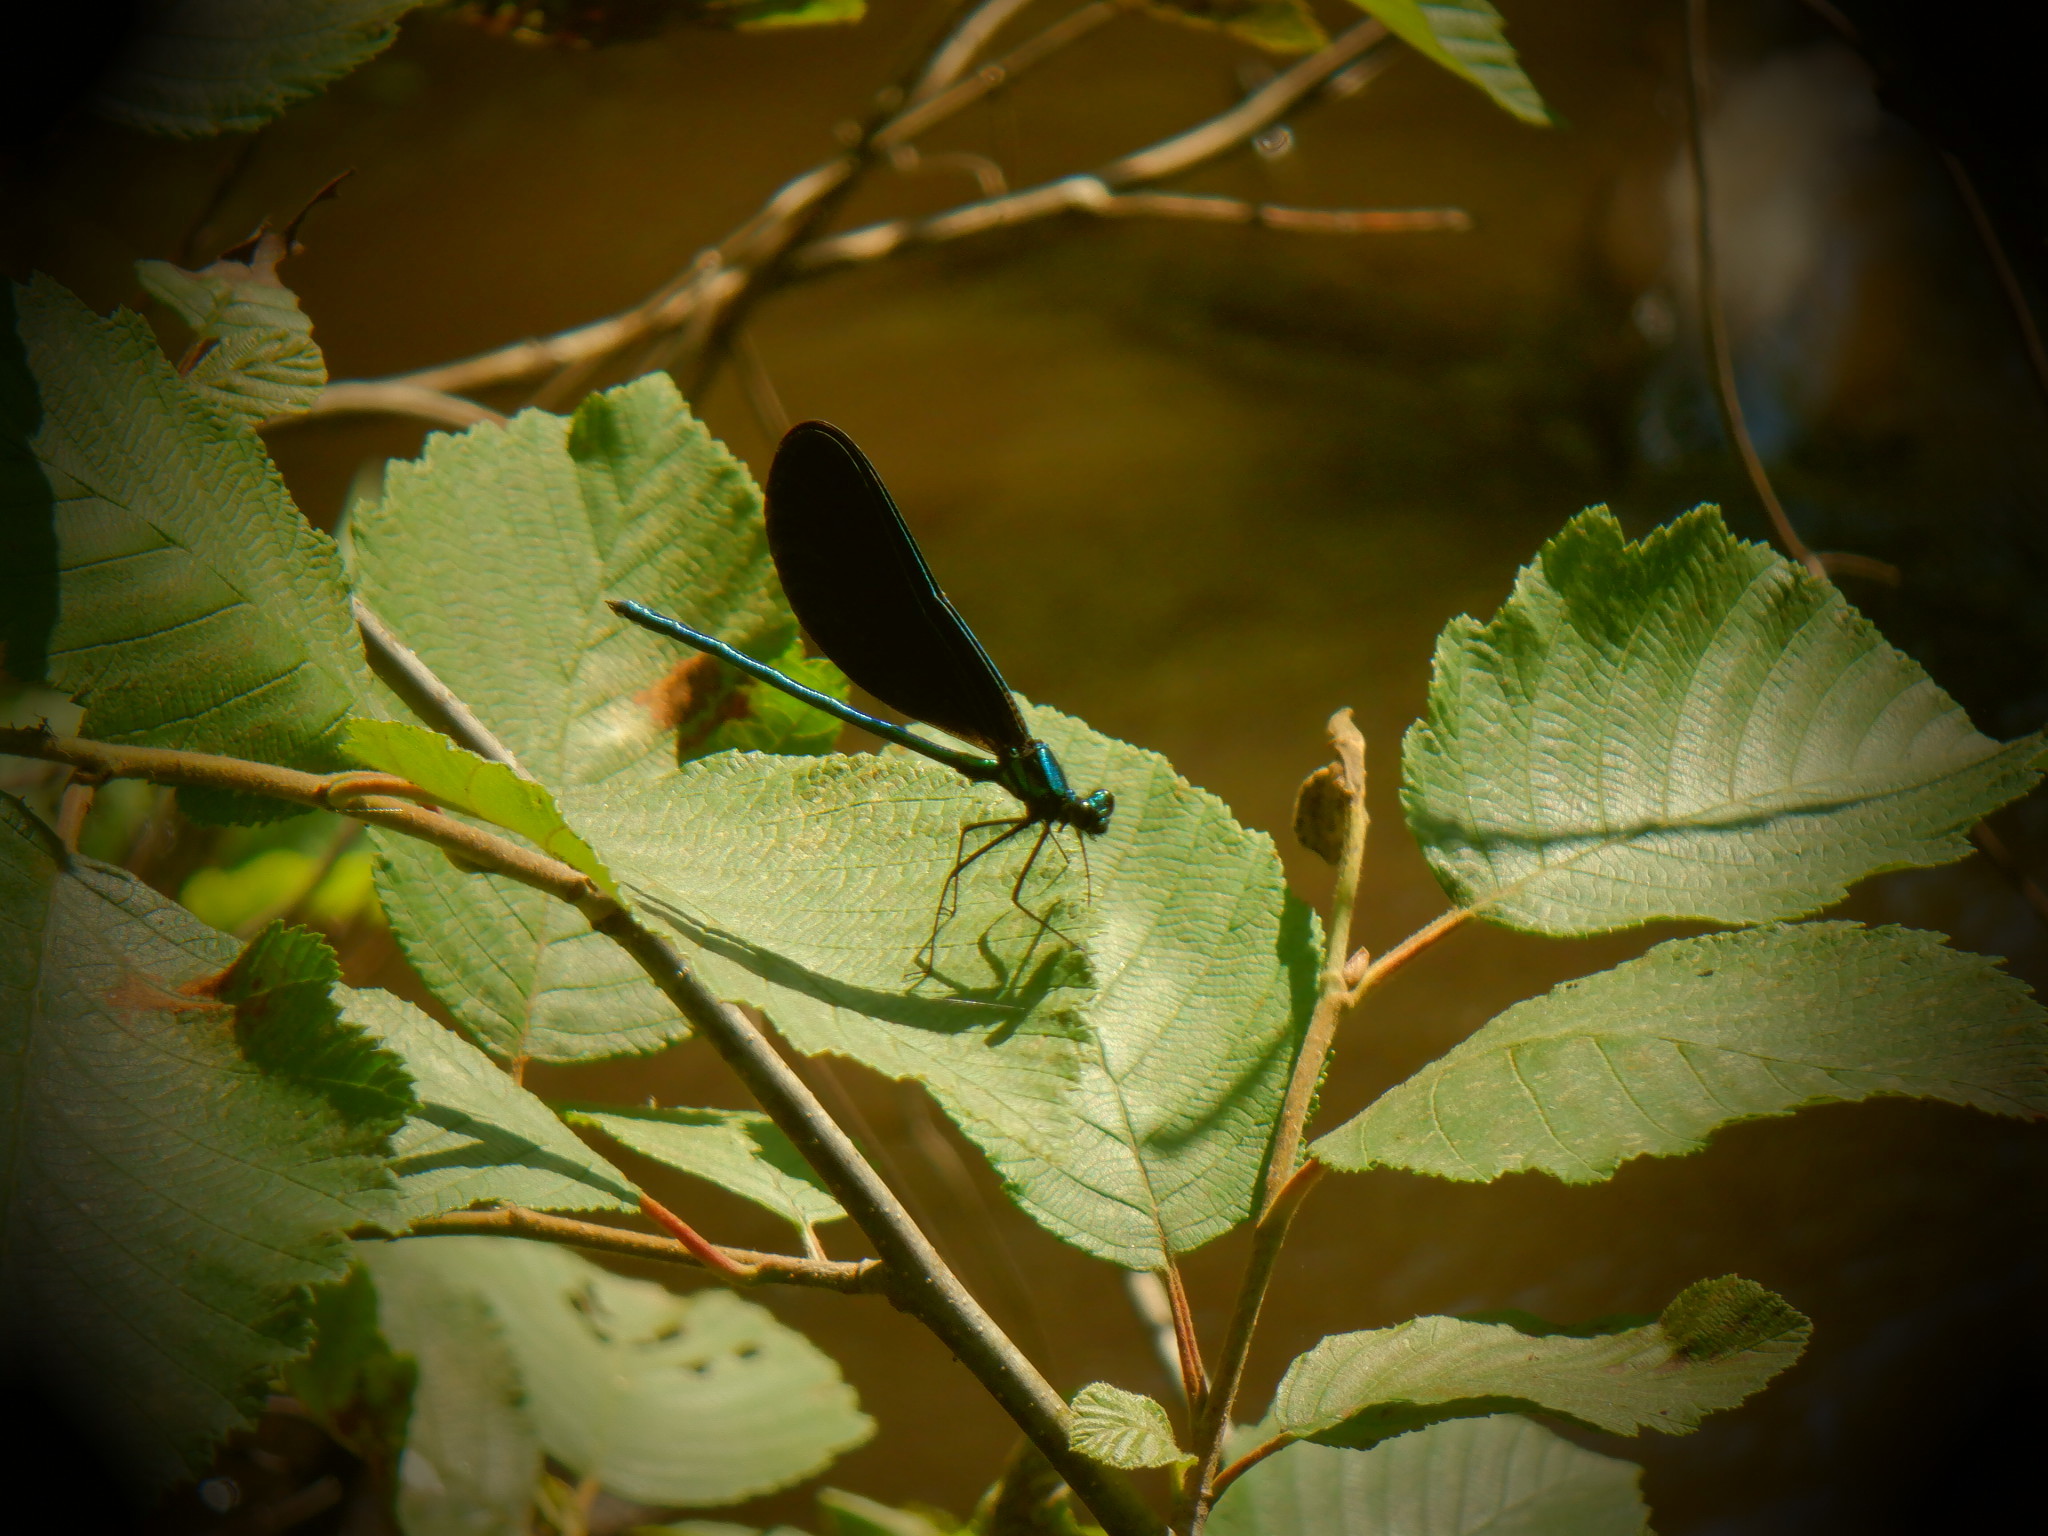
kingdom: Animalia
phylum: Arthropoda
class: Insecta
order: Odonata
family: Calopterygidae
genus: Calopteryx
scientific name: Calopteryx maculata
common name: Ebony jewelwing
